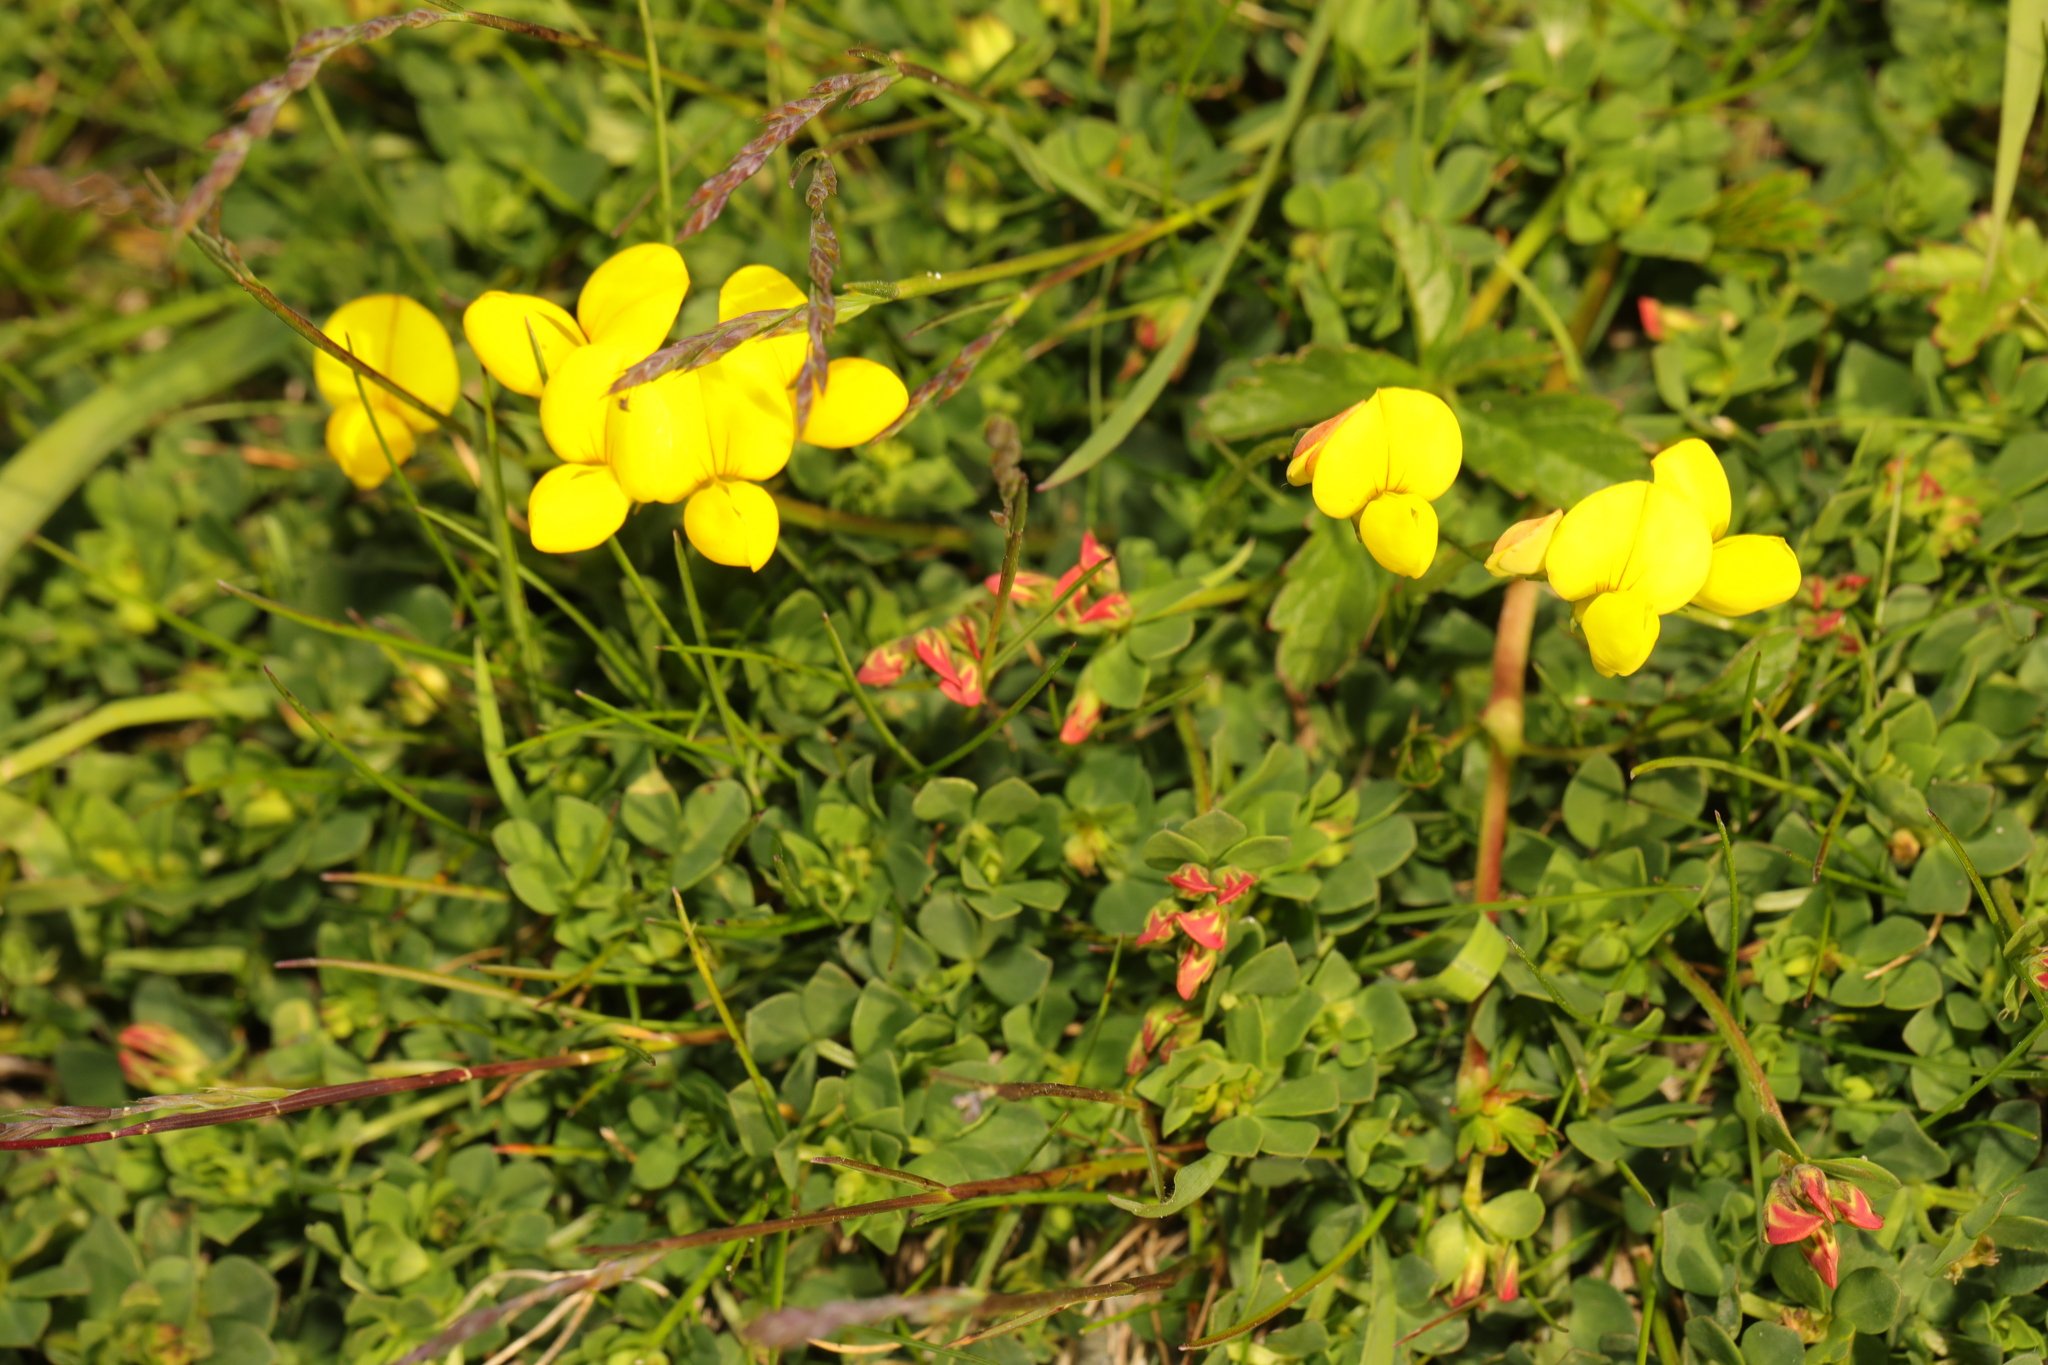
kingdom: Plantae
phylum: Tracheophyta
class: Magnoliopsida
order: Fabales
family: Fabaceae
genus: Lotus
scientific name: Lotus corniculatus
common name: Common bird's-foot-trefoil
